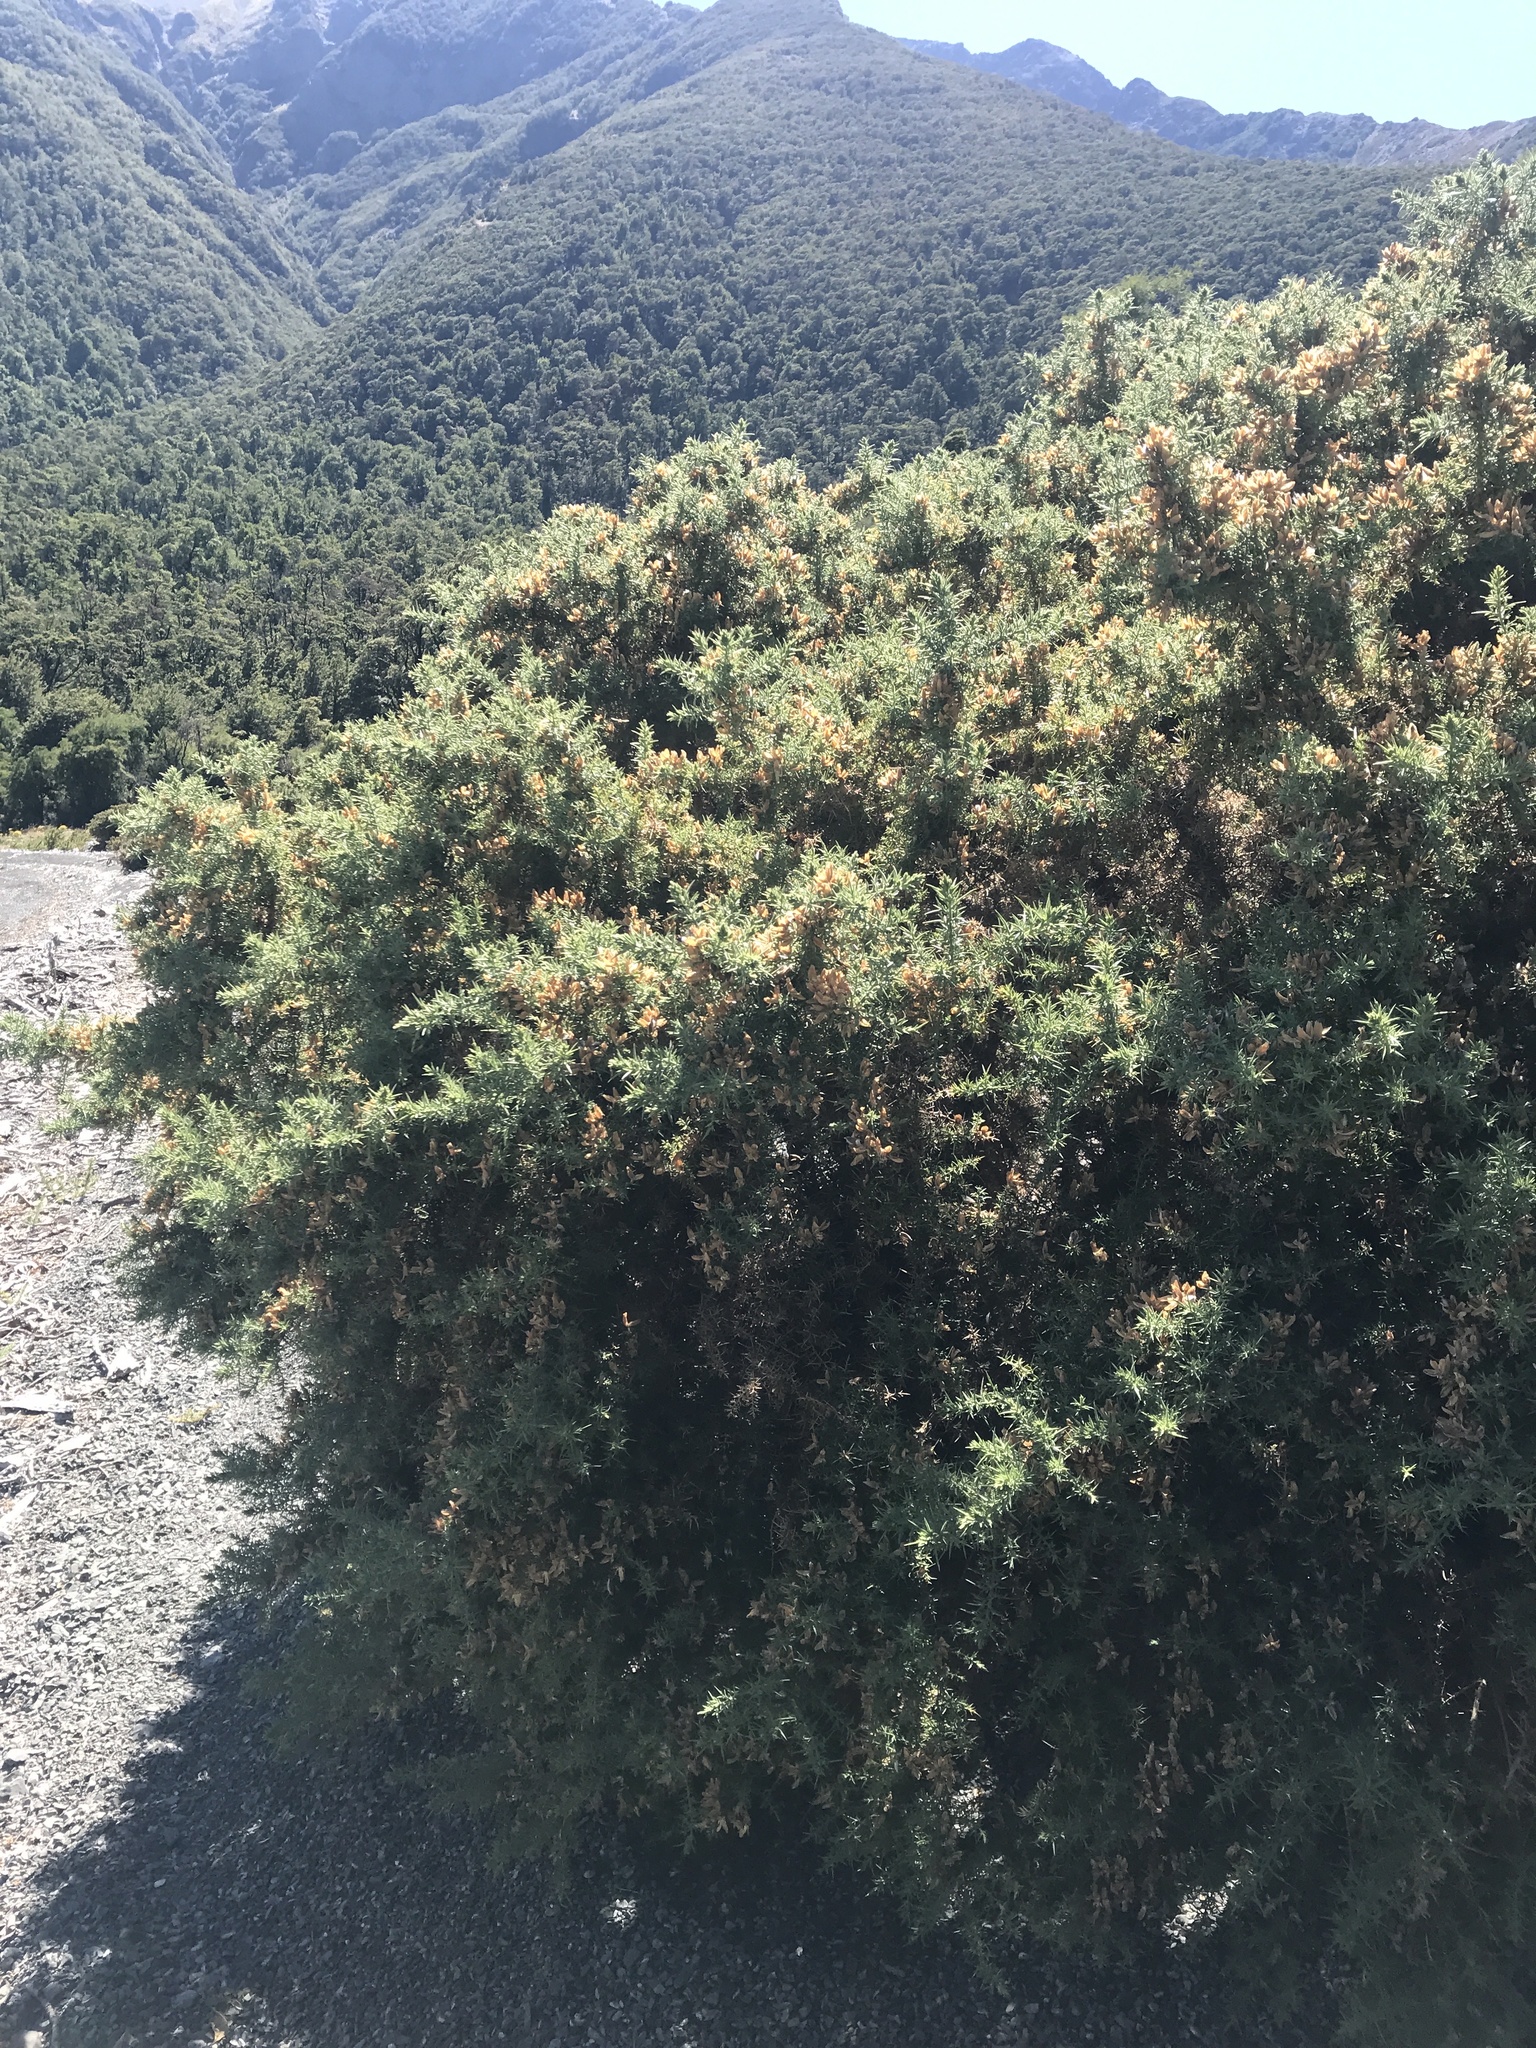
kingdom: Plantae
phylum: Tracheophyta
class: Magnoliopsida
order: Fabales
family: Fabaceae
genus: Ulex
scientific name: Ulex europaeus
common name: Common gorse
